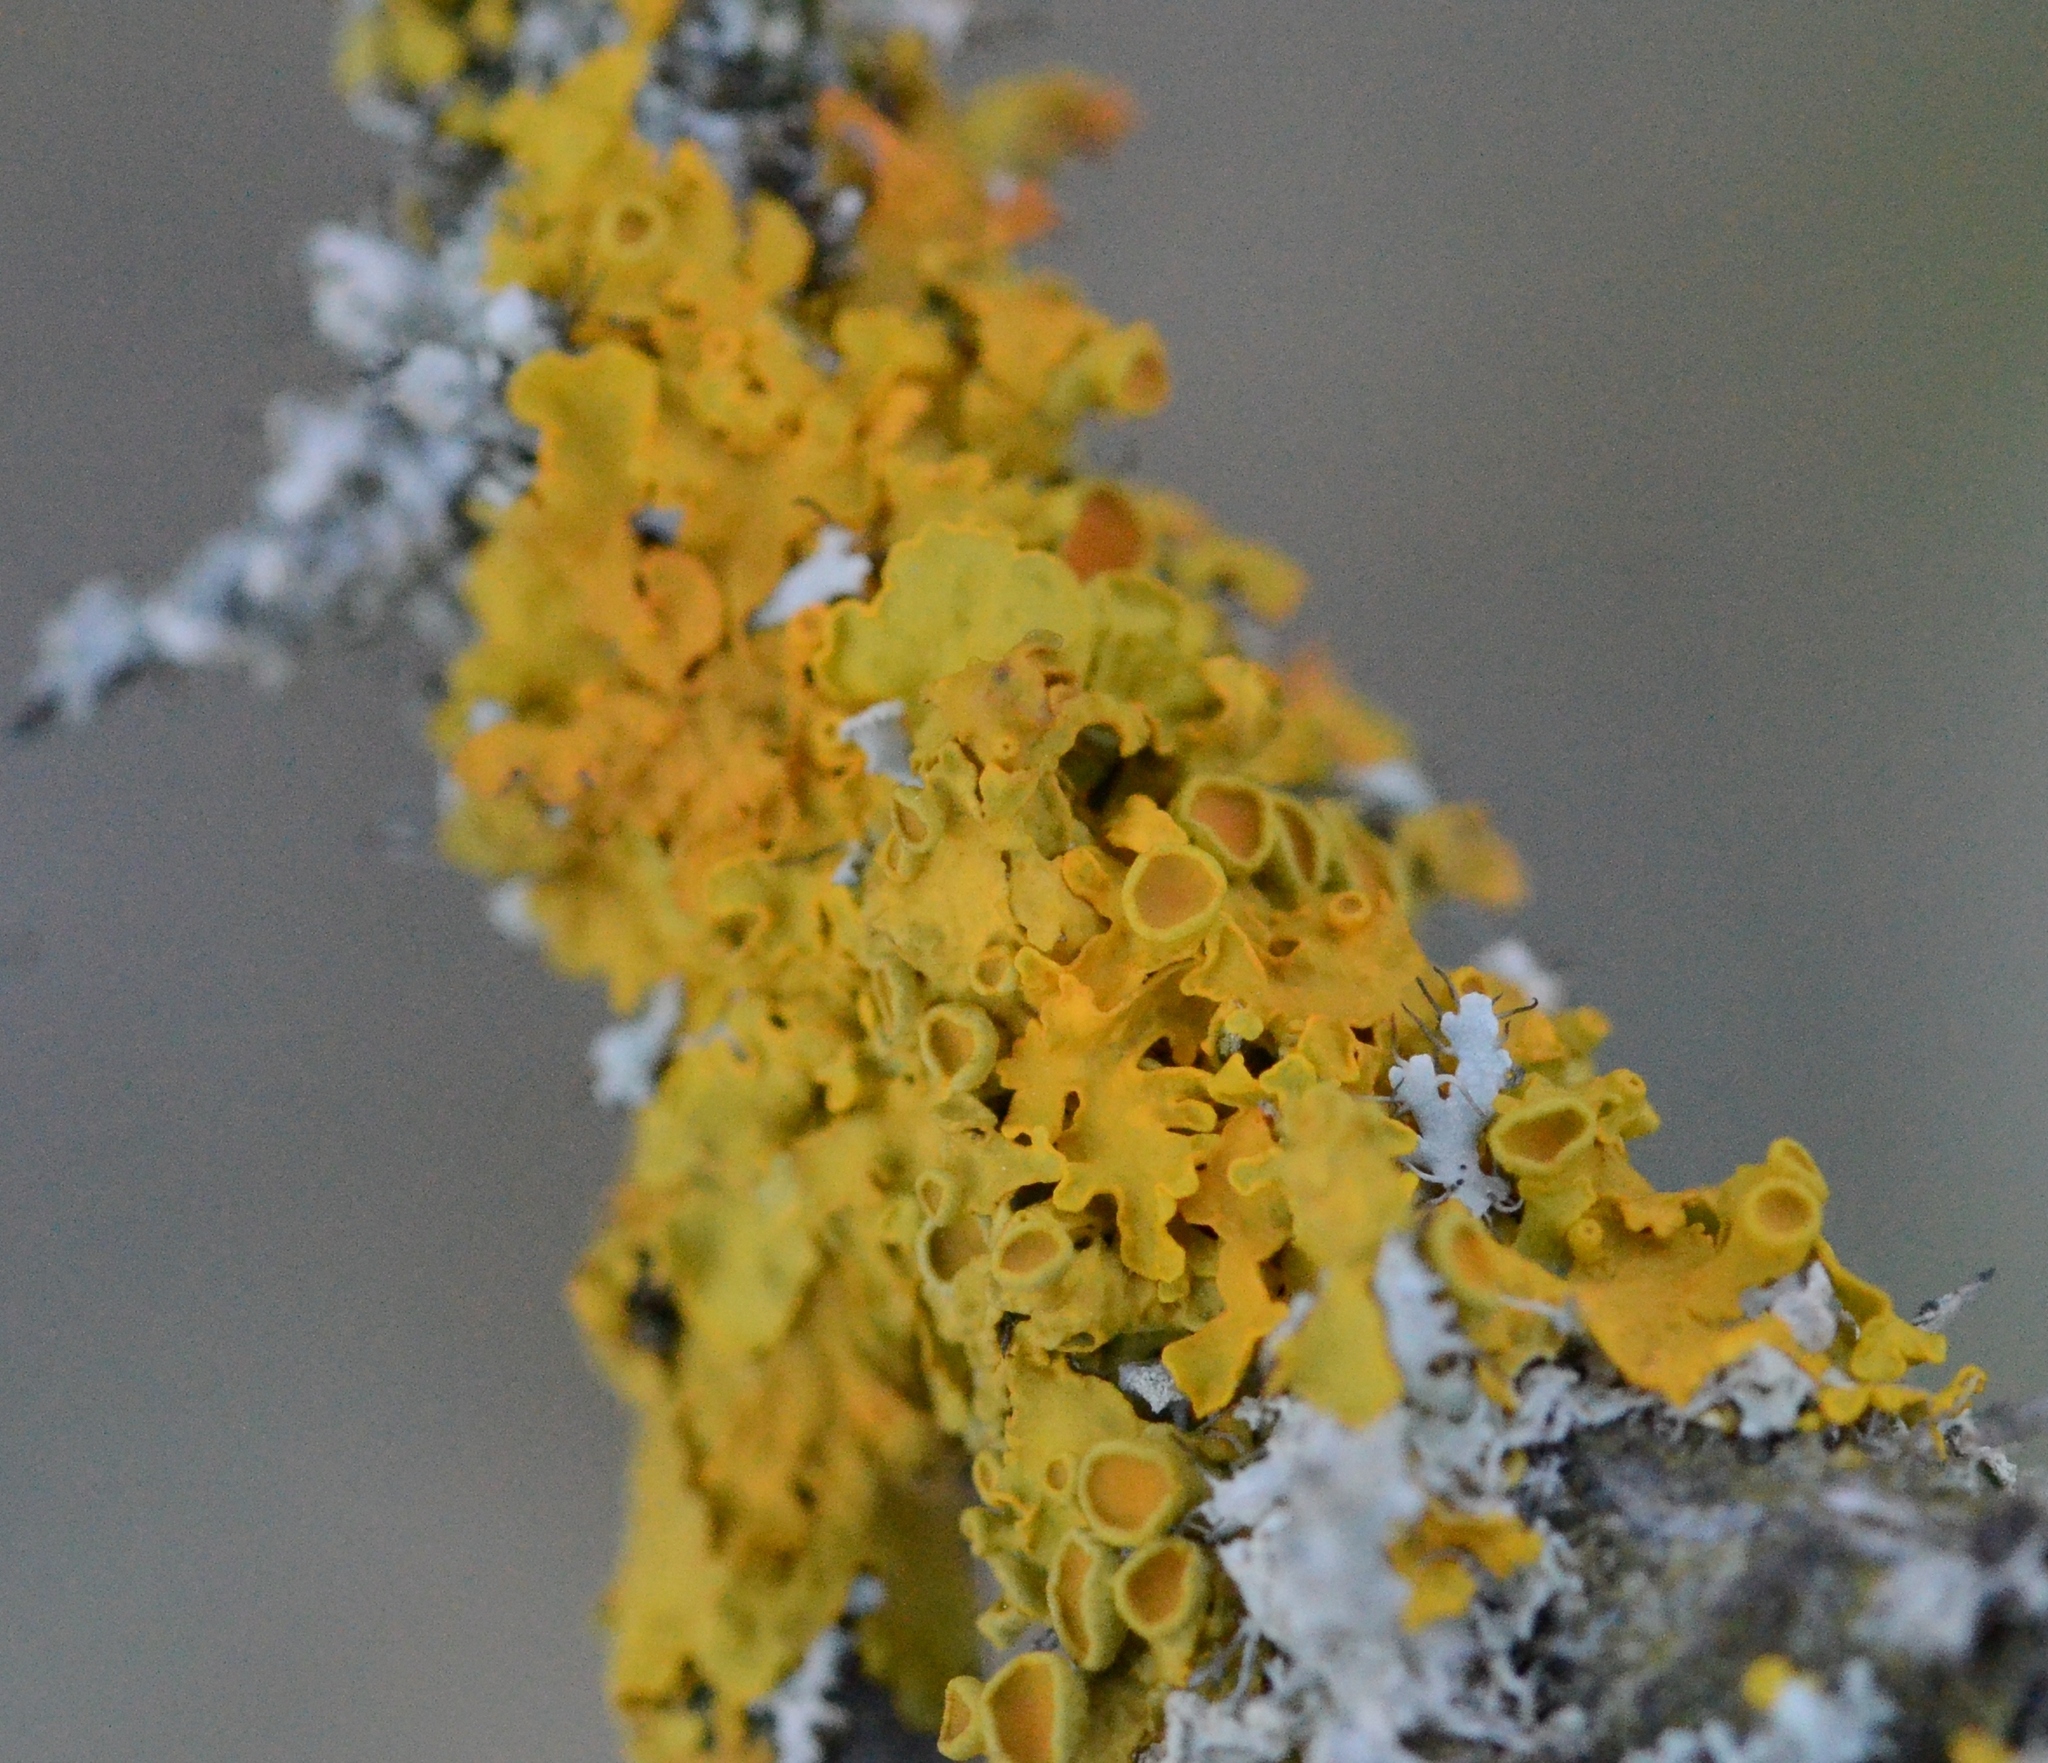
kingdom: Fungi
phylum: Ascomycota
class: Lecanoromycetes
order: Teloschistales
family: Teloschistaceae
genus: Xanthoria
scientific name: Xanthoria parietina
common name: Common orange lichen
